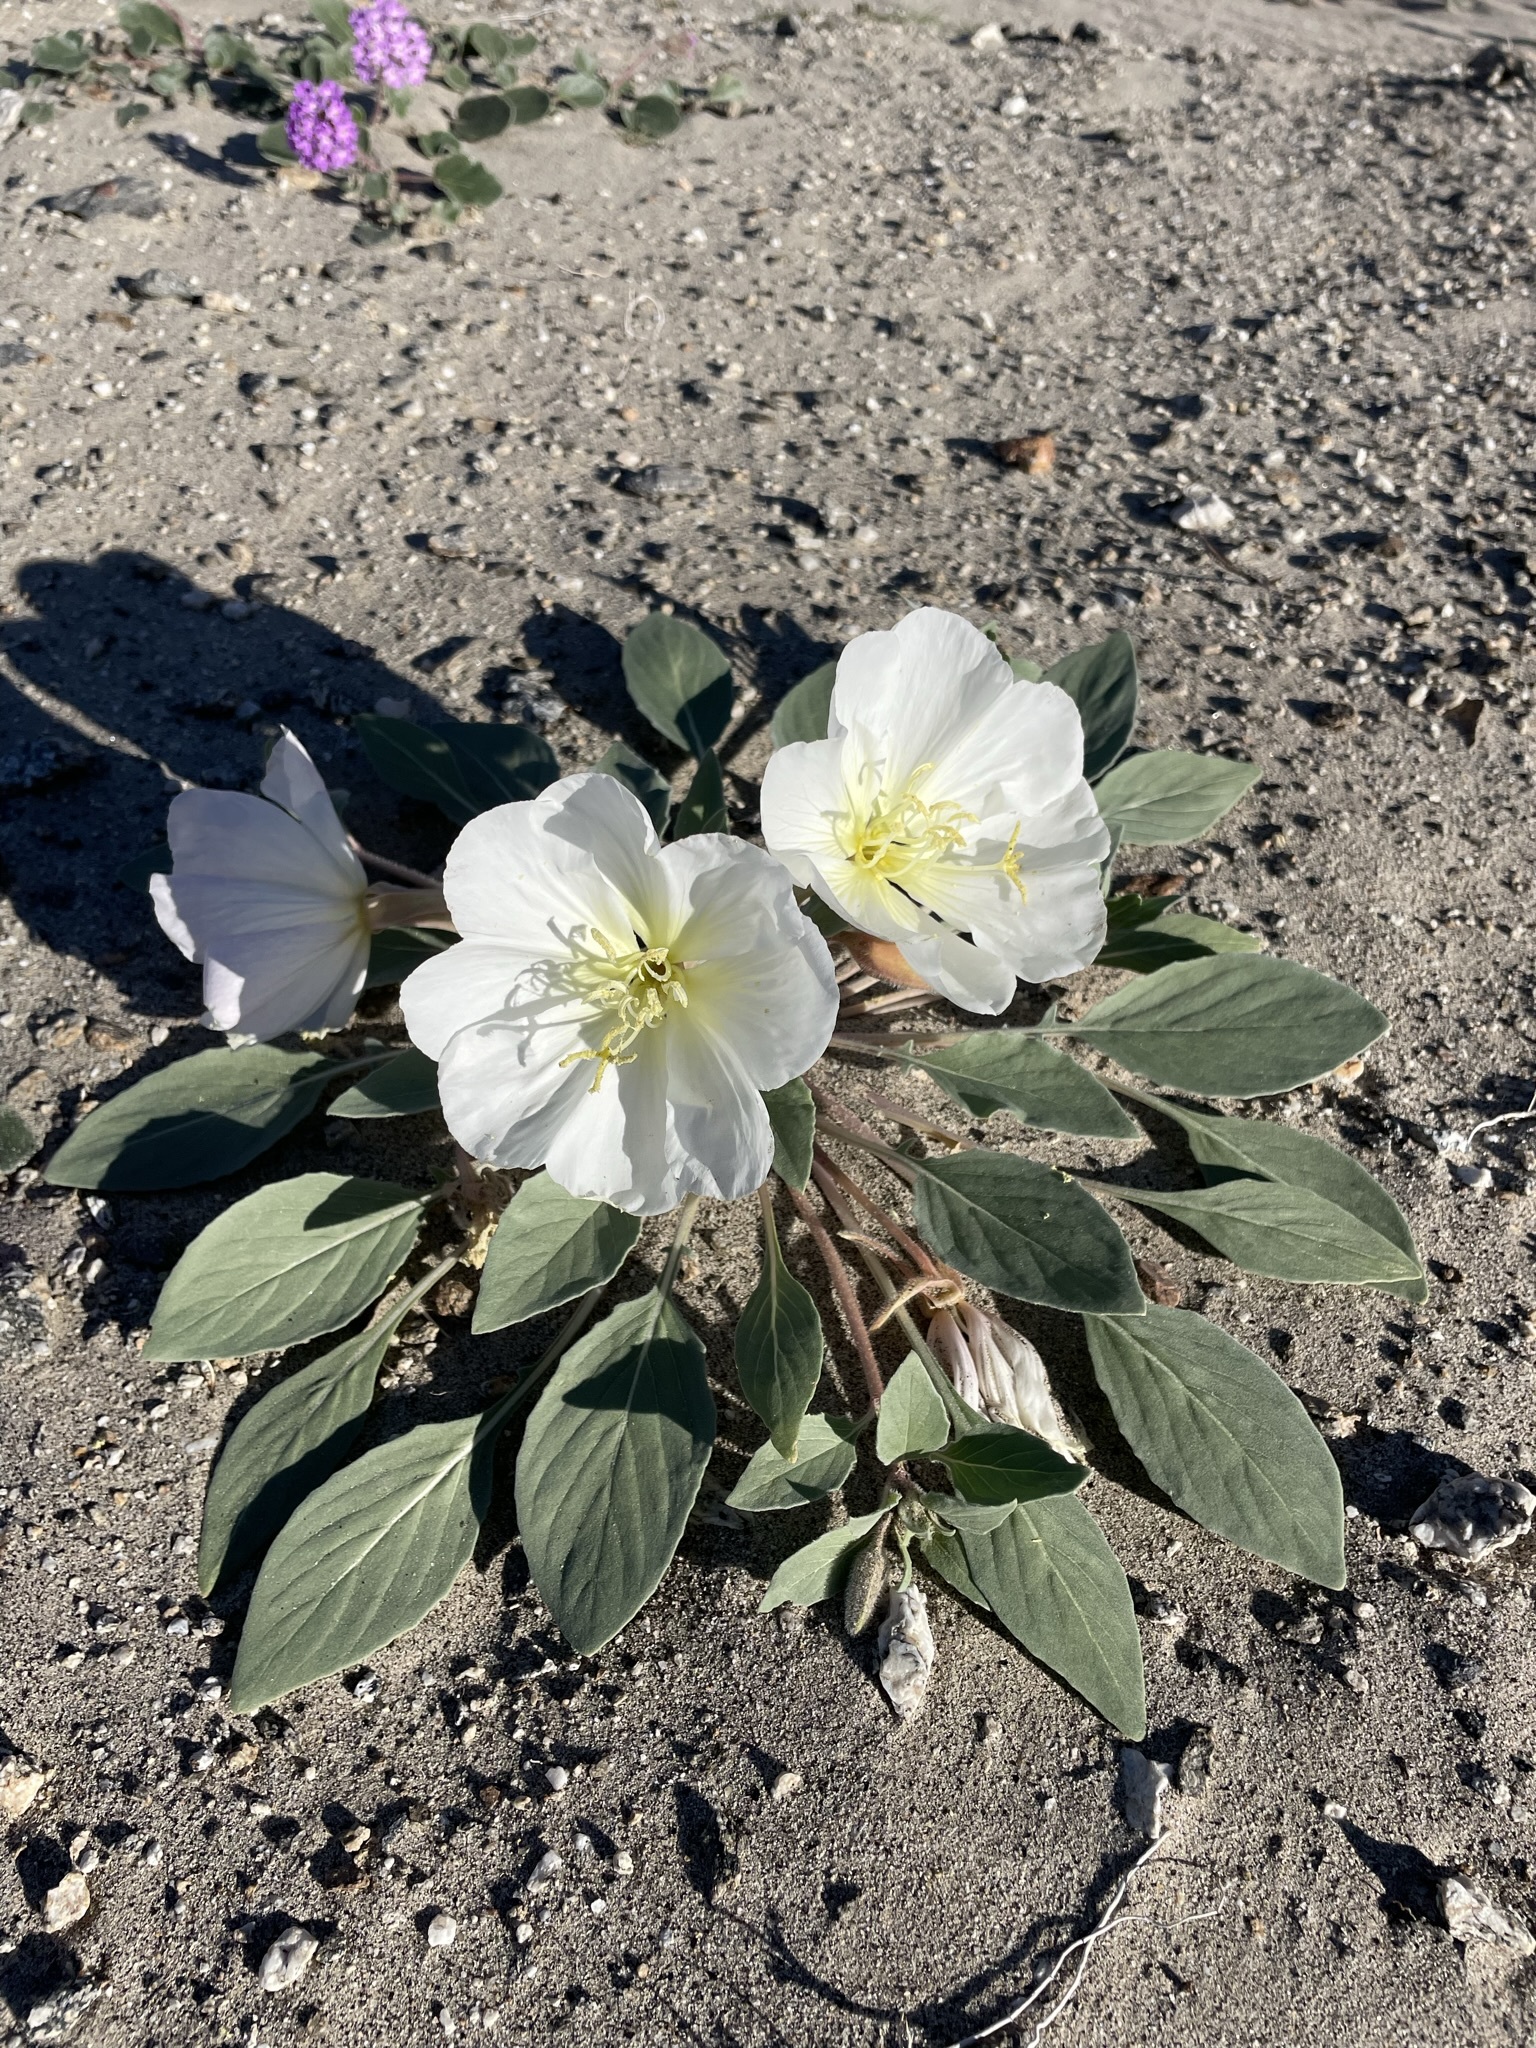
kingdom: Plantae
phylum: Tracheophyta
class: Magnoliopsida
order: Myrtales
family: Onagraceae
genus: Oenothera
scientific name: Oenothera deltoides
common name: Basket evening-primrose
